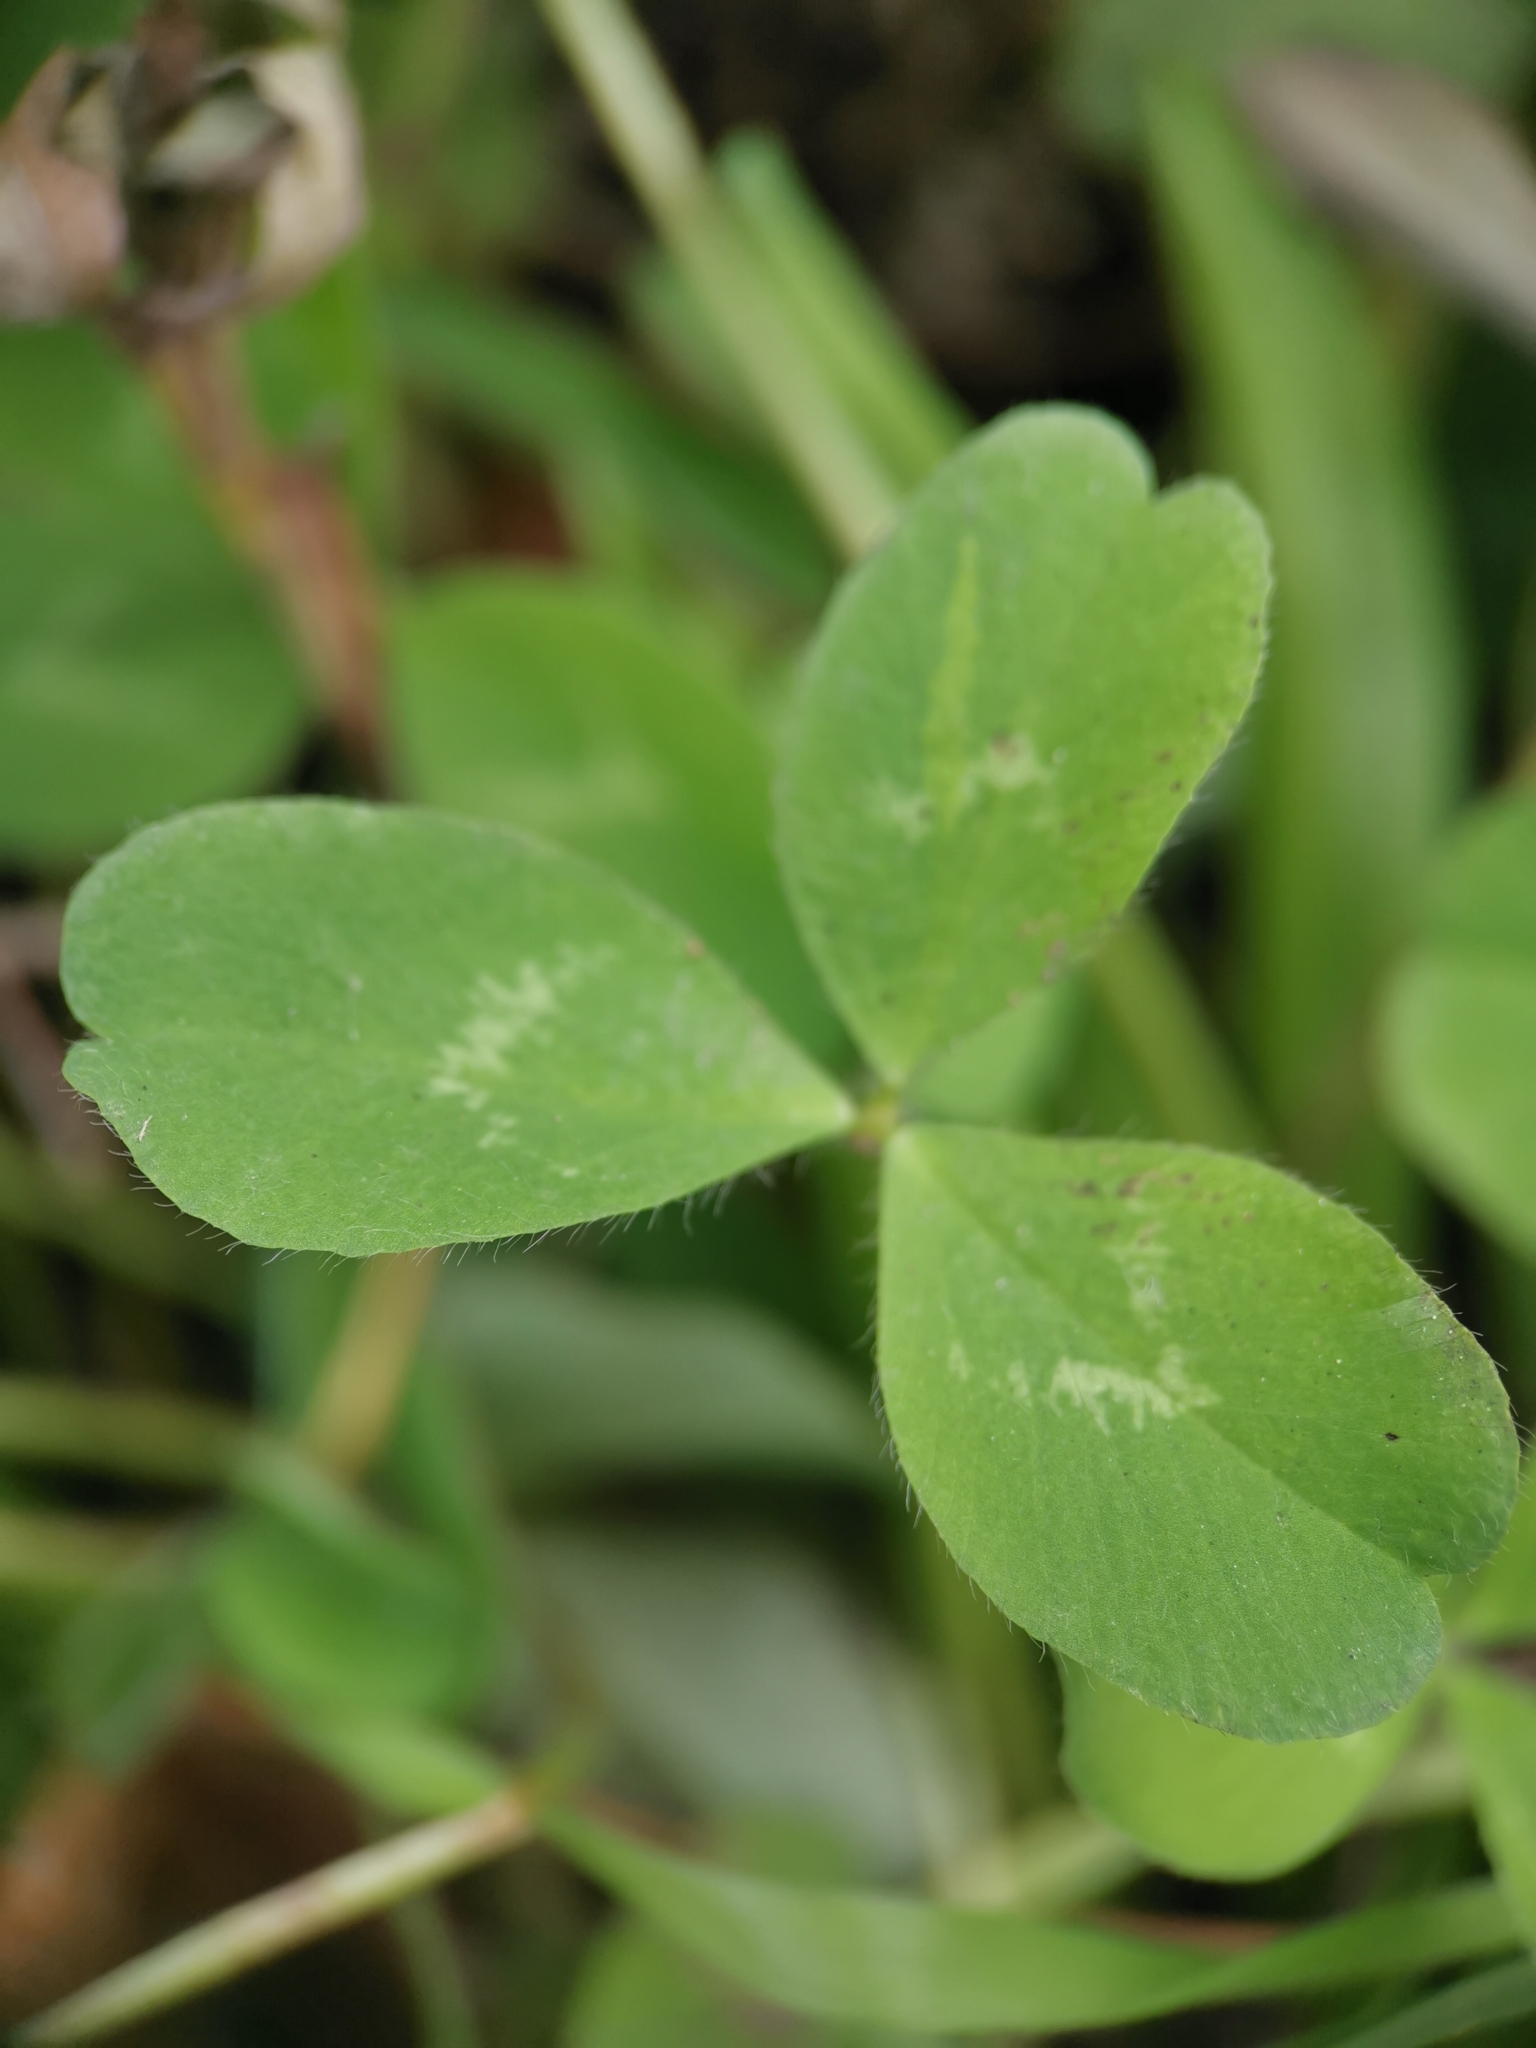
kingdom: Plantae
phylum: Tracheophyta
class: Magnoliopsida
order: Fabales
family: Fabaceae
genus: Trifolium
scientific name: Trifolium pratense
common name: Red clover
